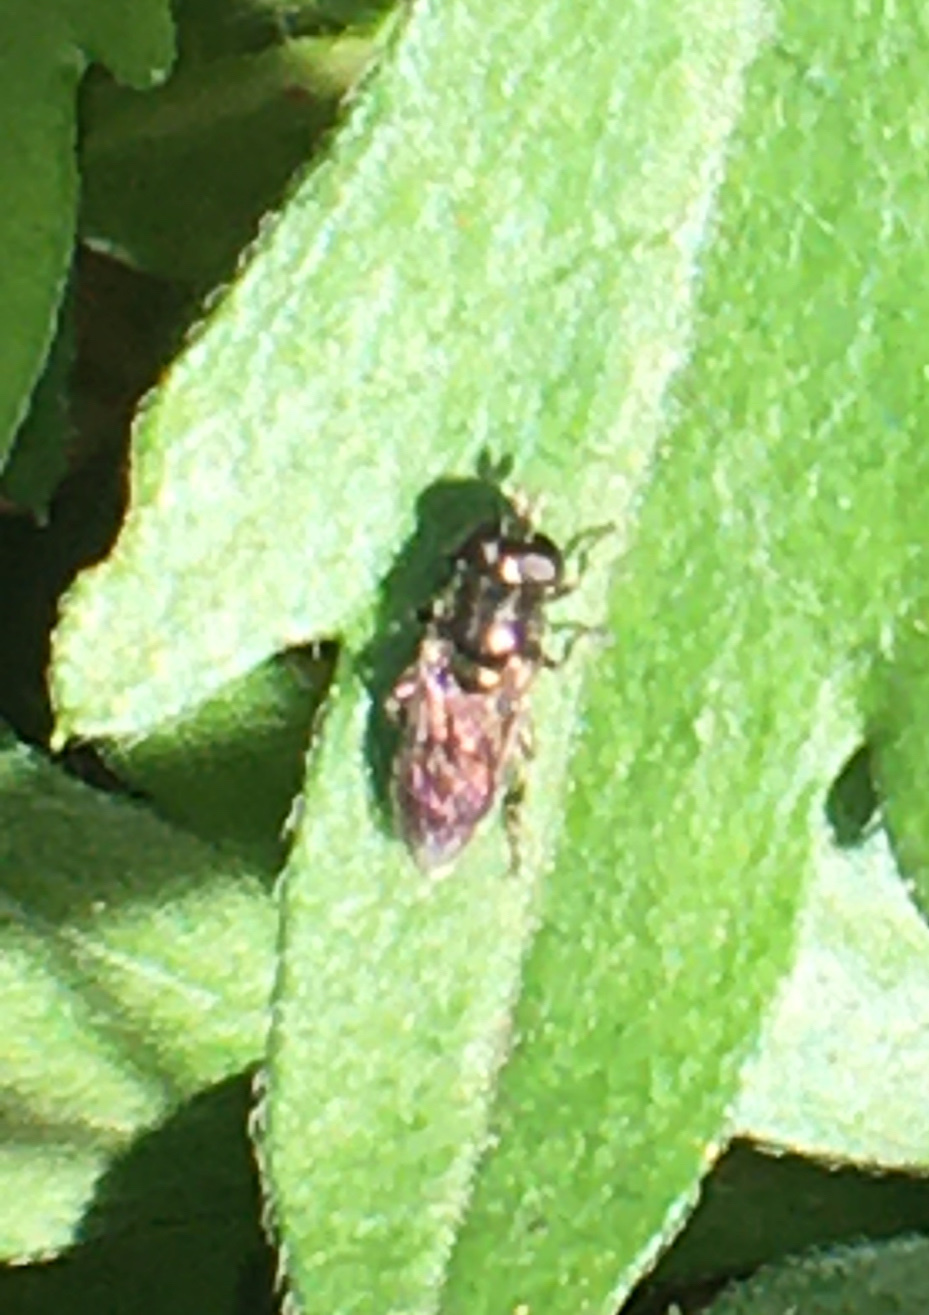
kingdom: Animalia
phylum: Arthropoda
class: Insecta
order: Diptera
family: Syrphidae
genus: Eumerus
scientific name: Eumerus
